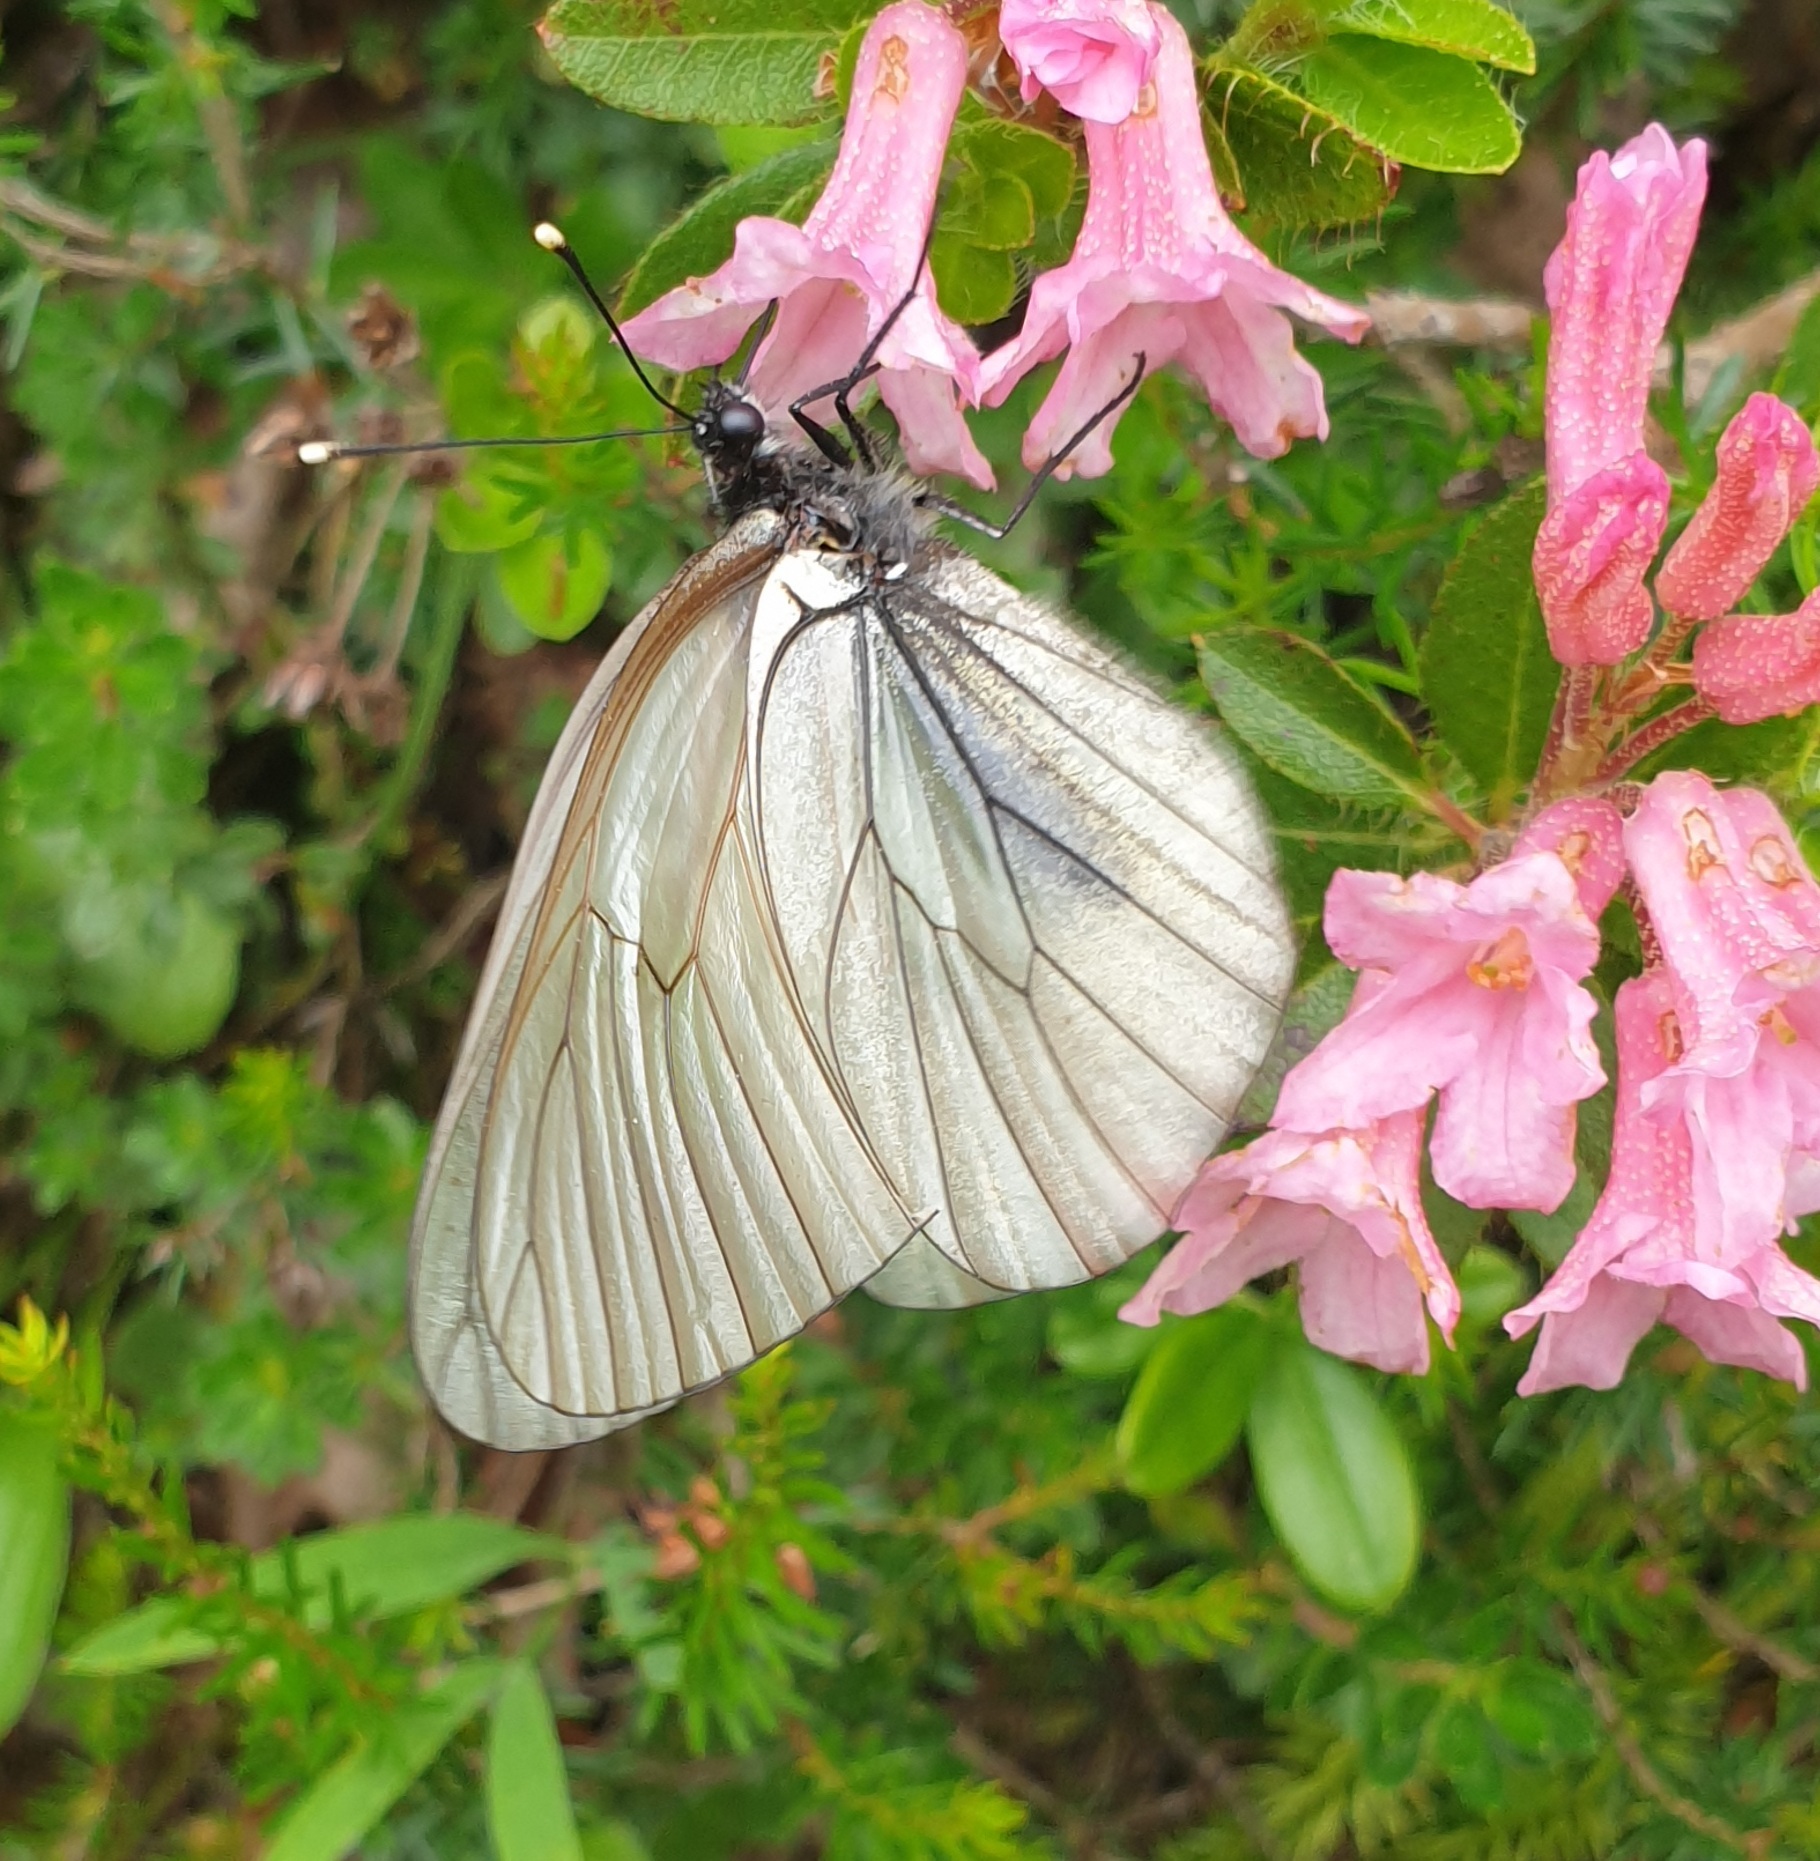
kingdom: Animalia
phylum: Arthropoda
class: Insecta
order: Lepidoptera
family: Pieridae
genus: Aporia
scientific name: Aporia crataegi
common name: Black-veined white
